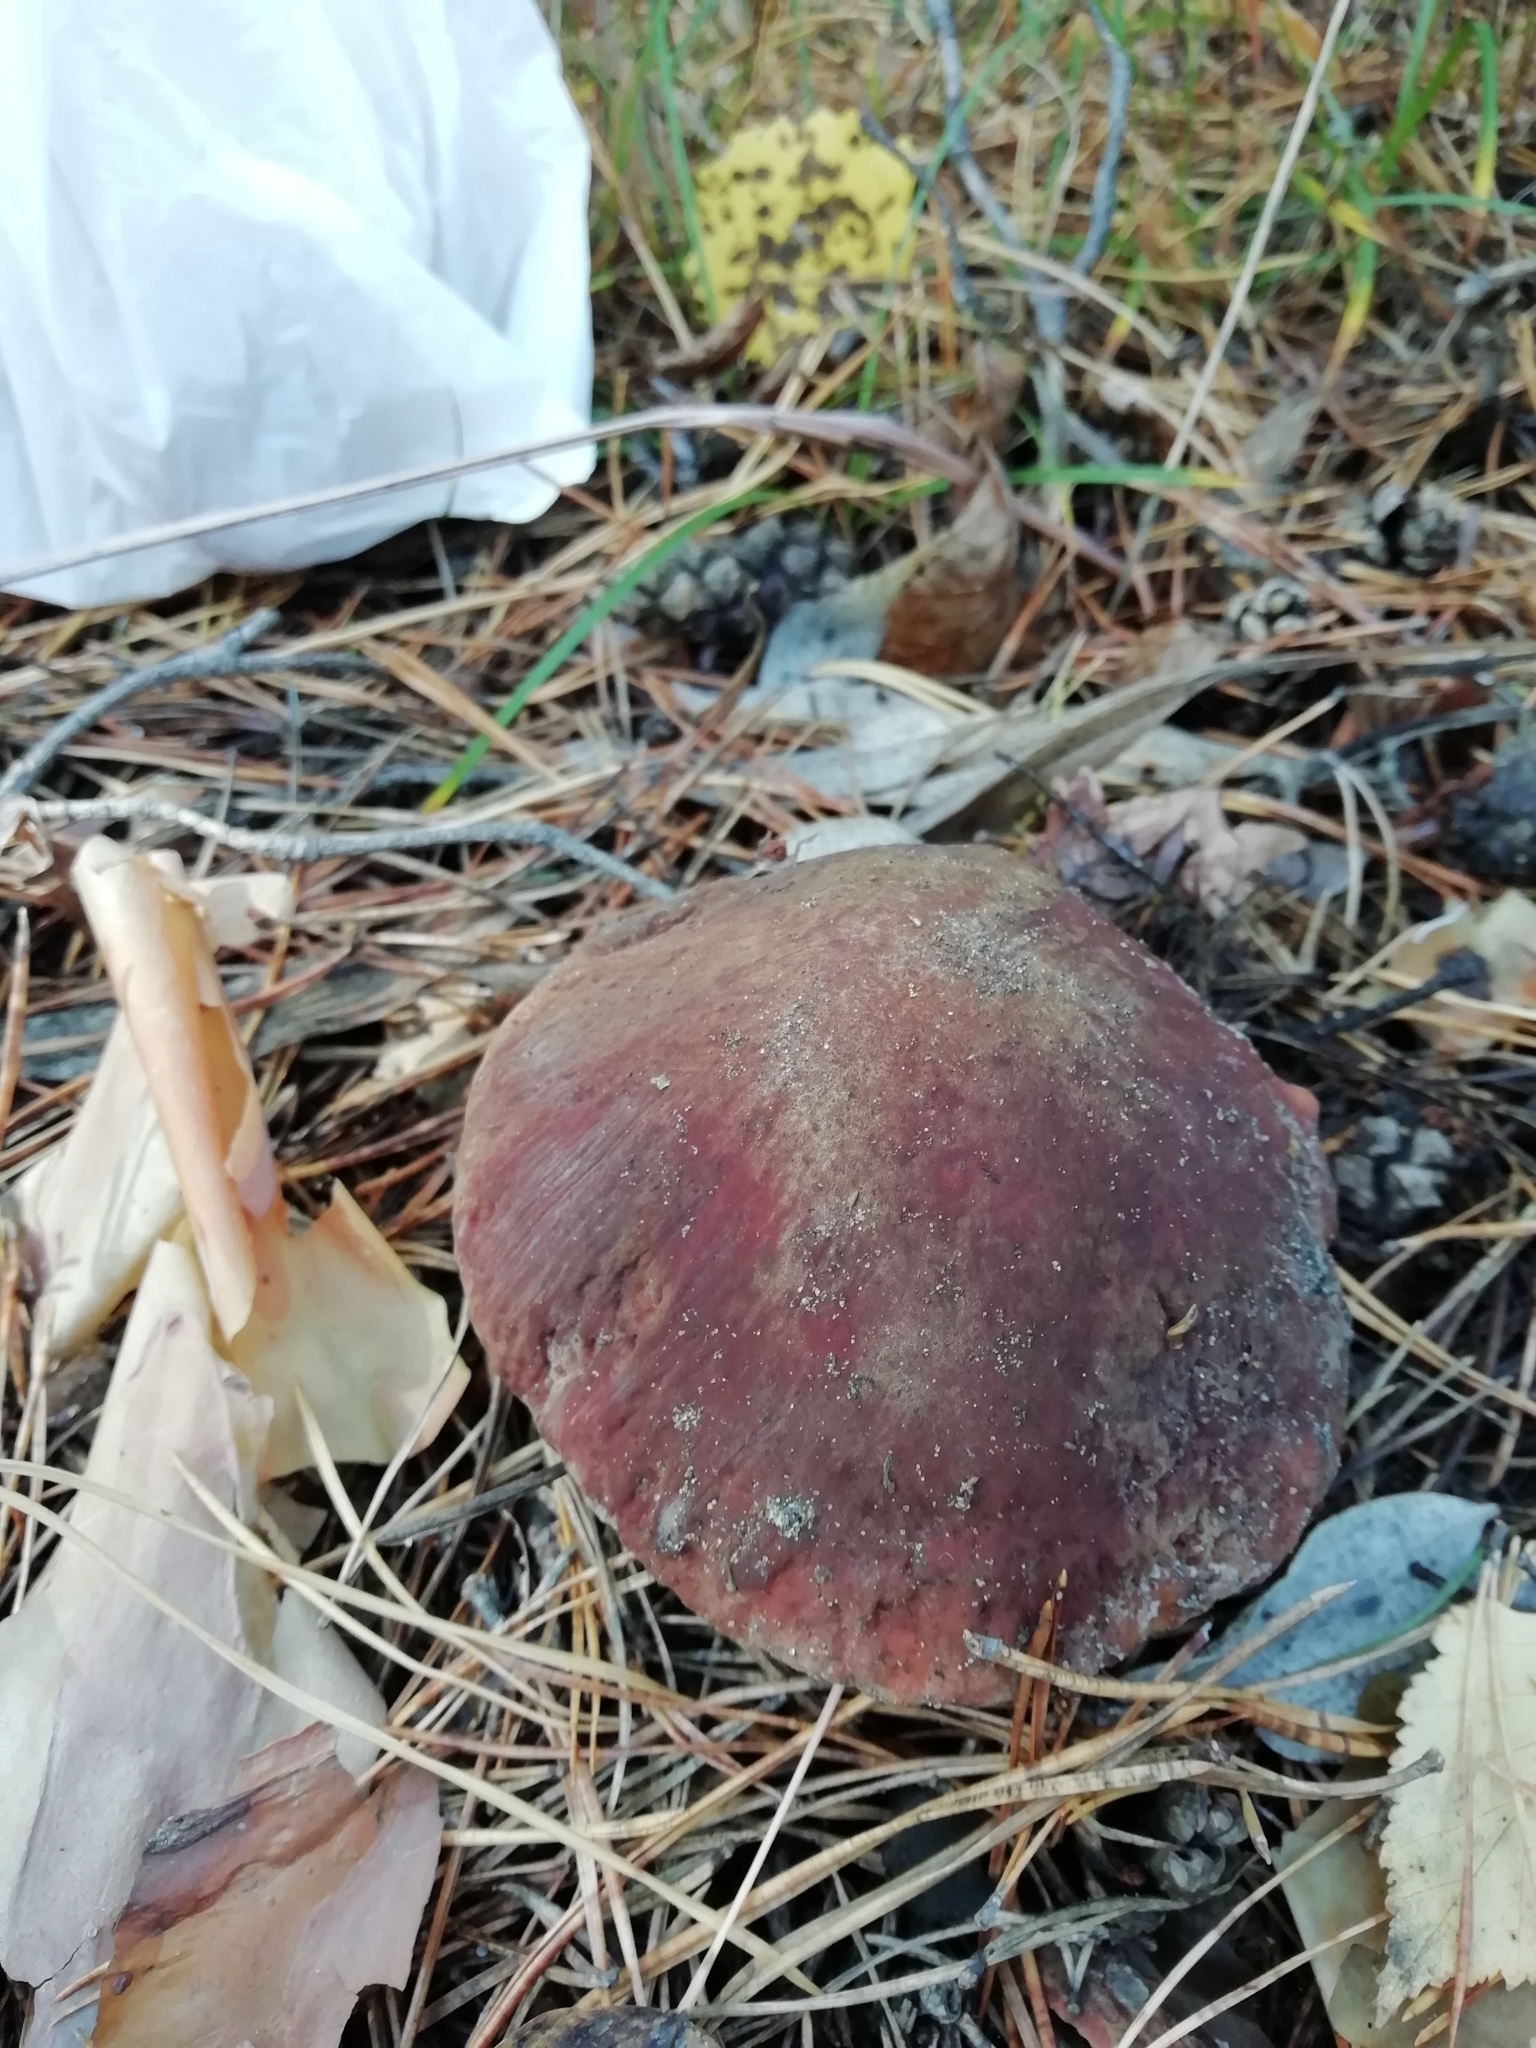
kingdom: Fungi
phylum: Basidiomycota
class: Agaricomycetes
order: Boletales
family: Boletaceae
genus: Boletus
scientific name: Boletus pinophilus
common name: Pine bolete
